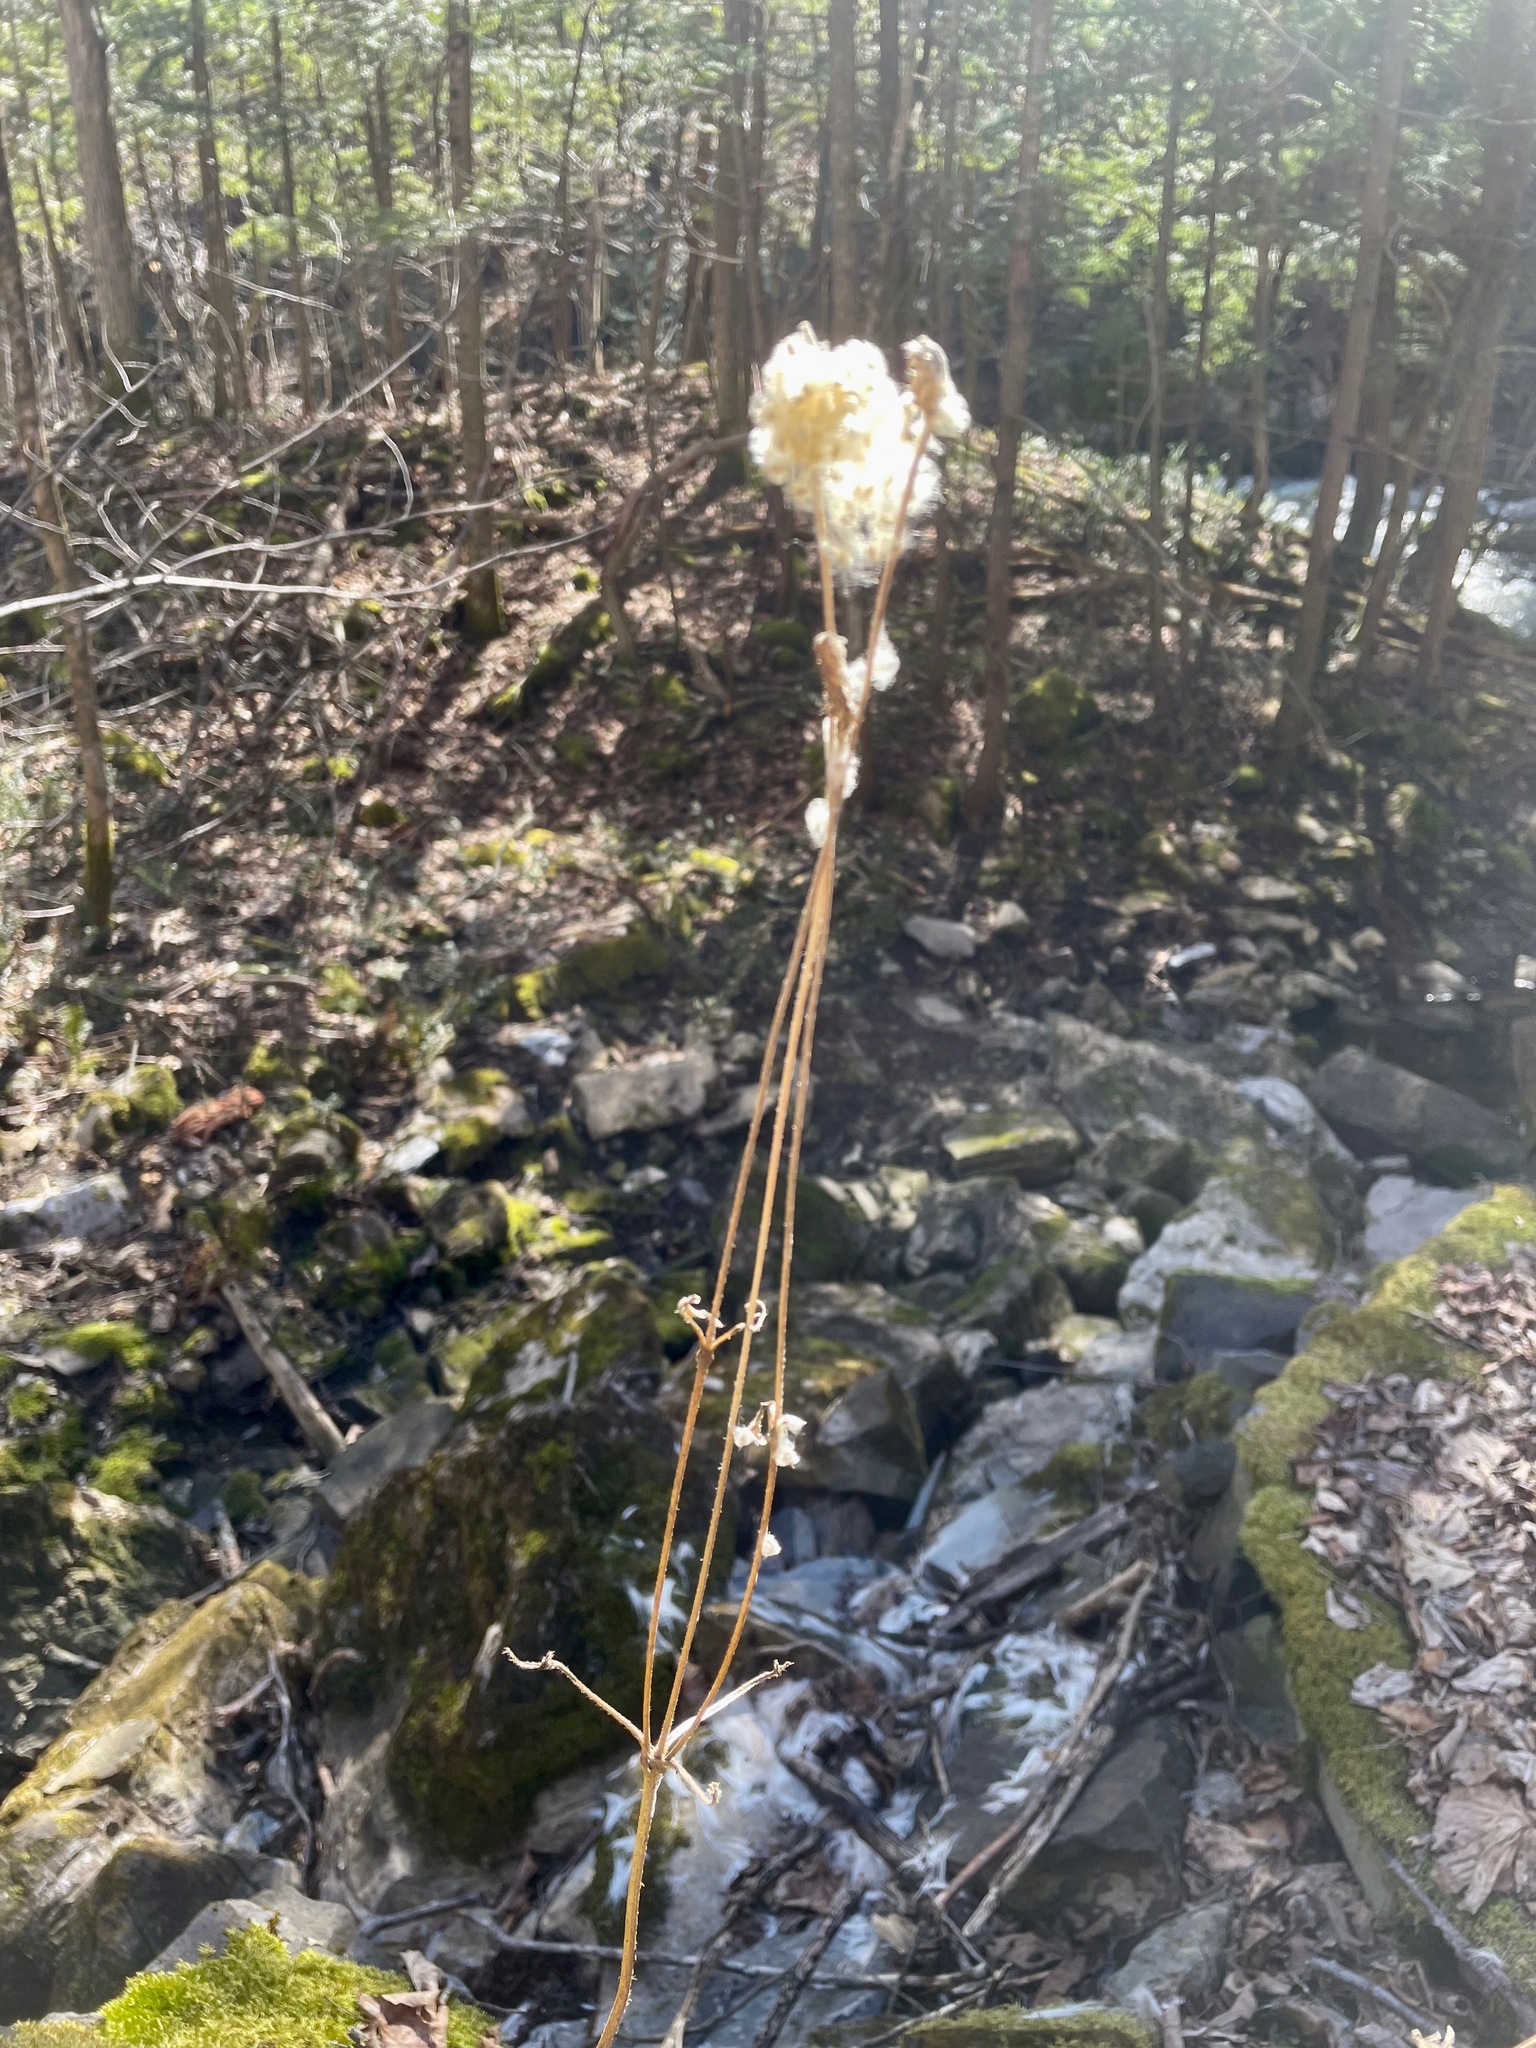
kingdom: Plantae
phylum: Tracheophyta
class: Magnoliopsida
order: Ranunculales
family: Ranunculaceae
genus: Anemone
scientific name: Anemone virginiana
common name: Tall anemone
